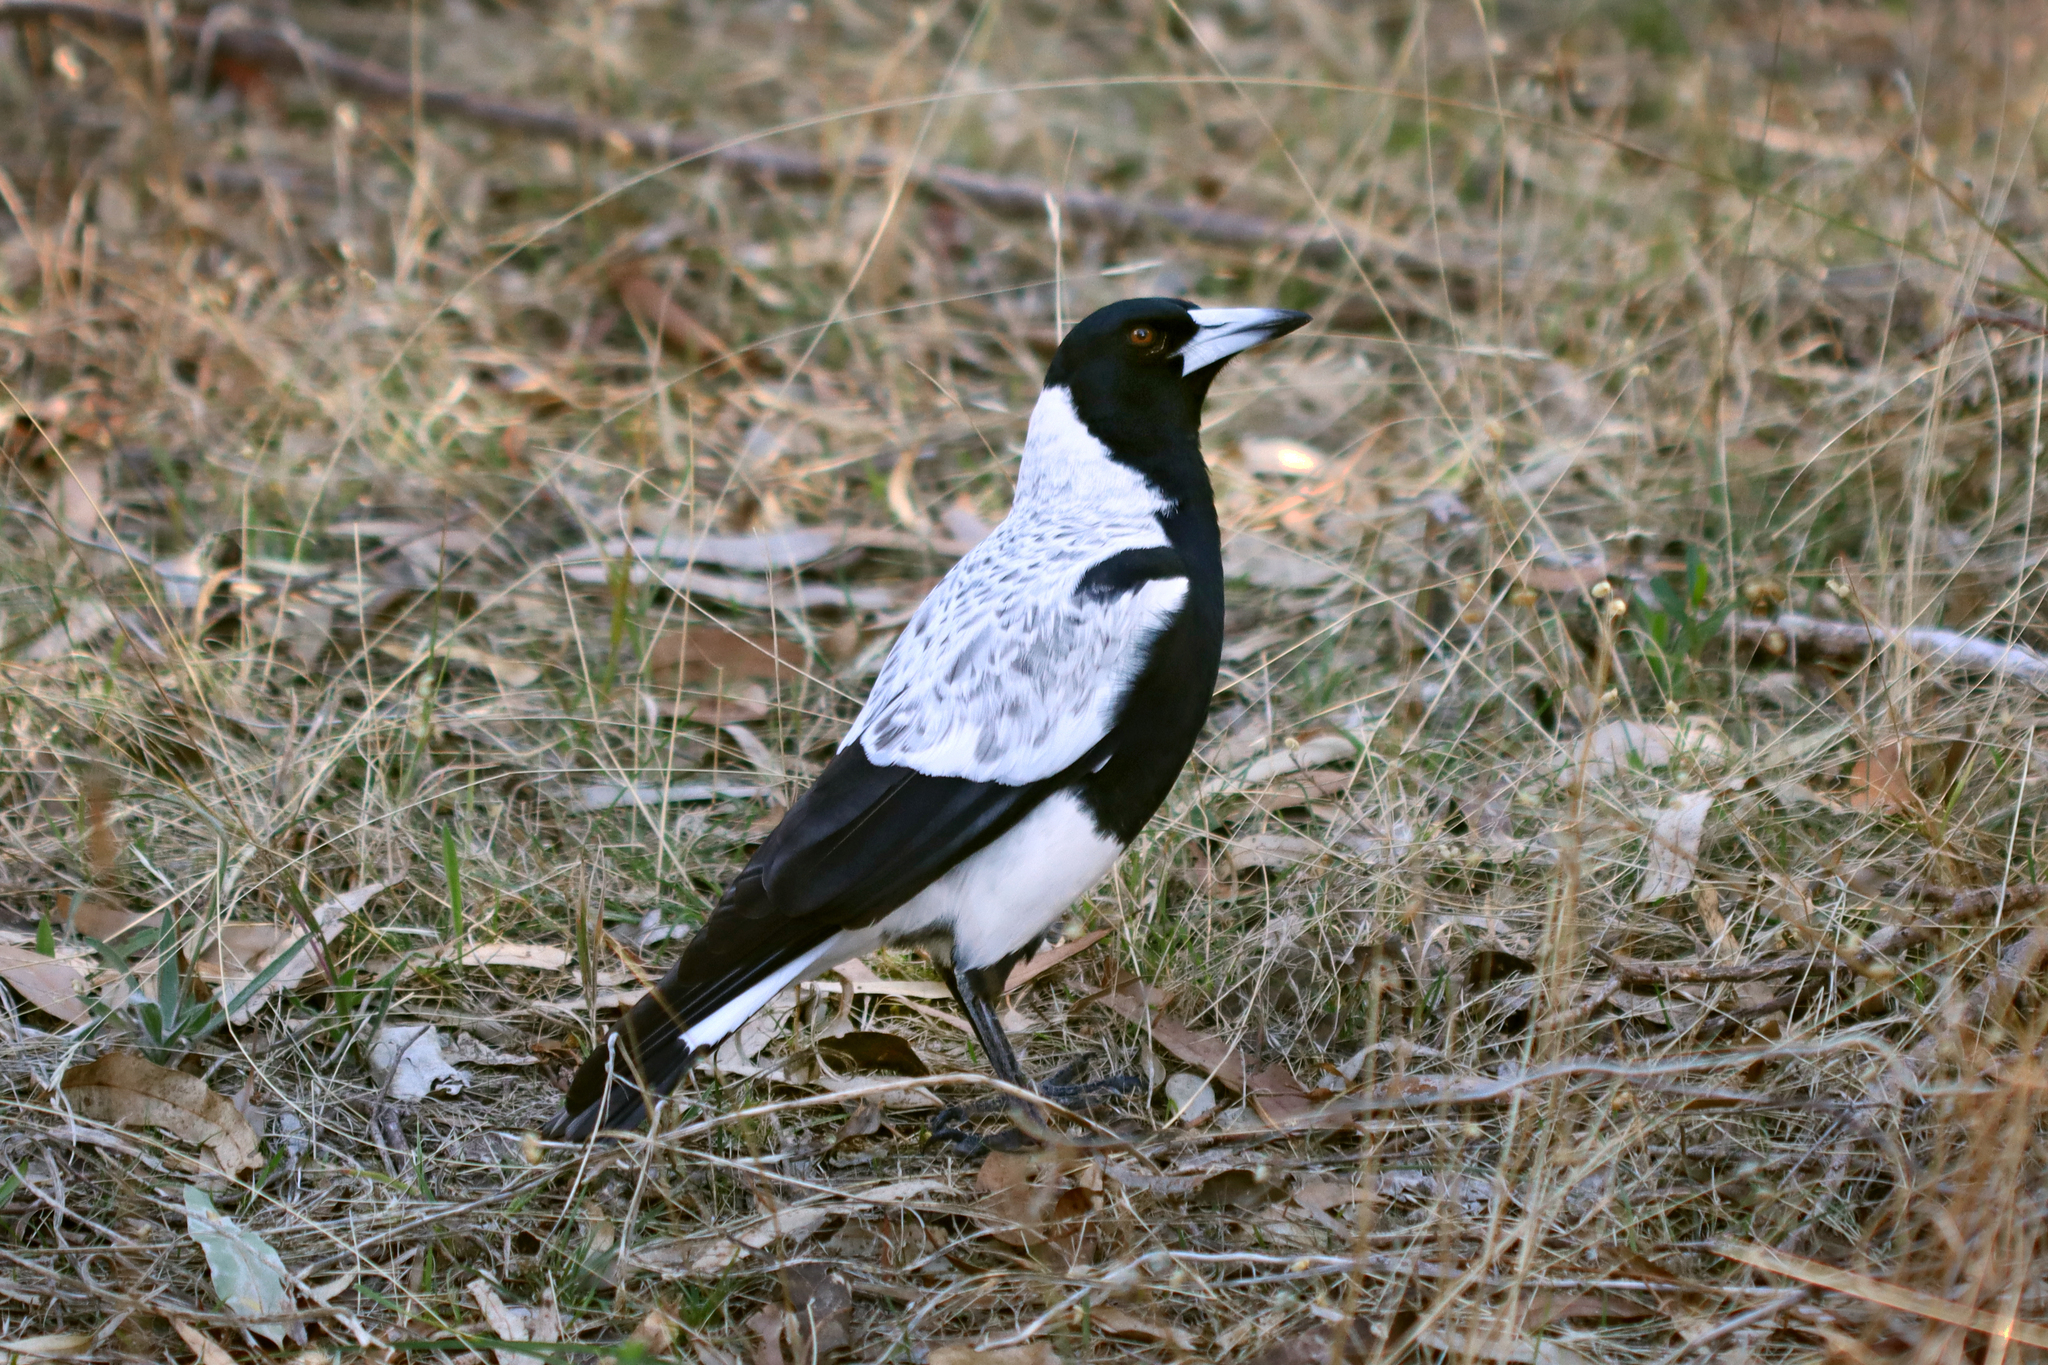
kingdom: Animalia
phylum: Chordata
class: Aves
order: Passeriformes
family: Cracticidae
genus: Gymnorhina
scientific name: Gymnorhina tibicen
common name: Australian magpie
